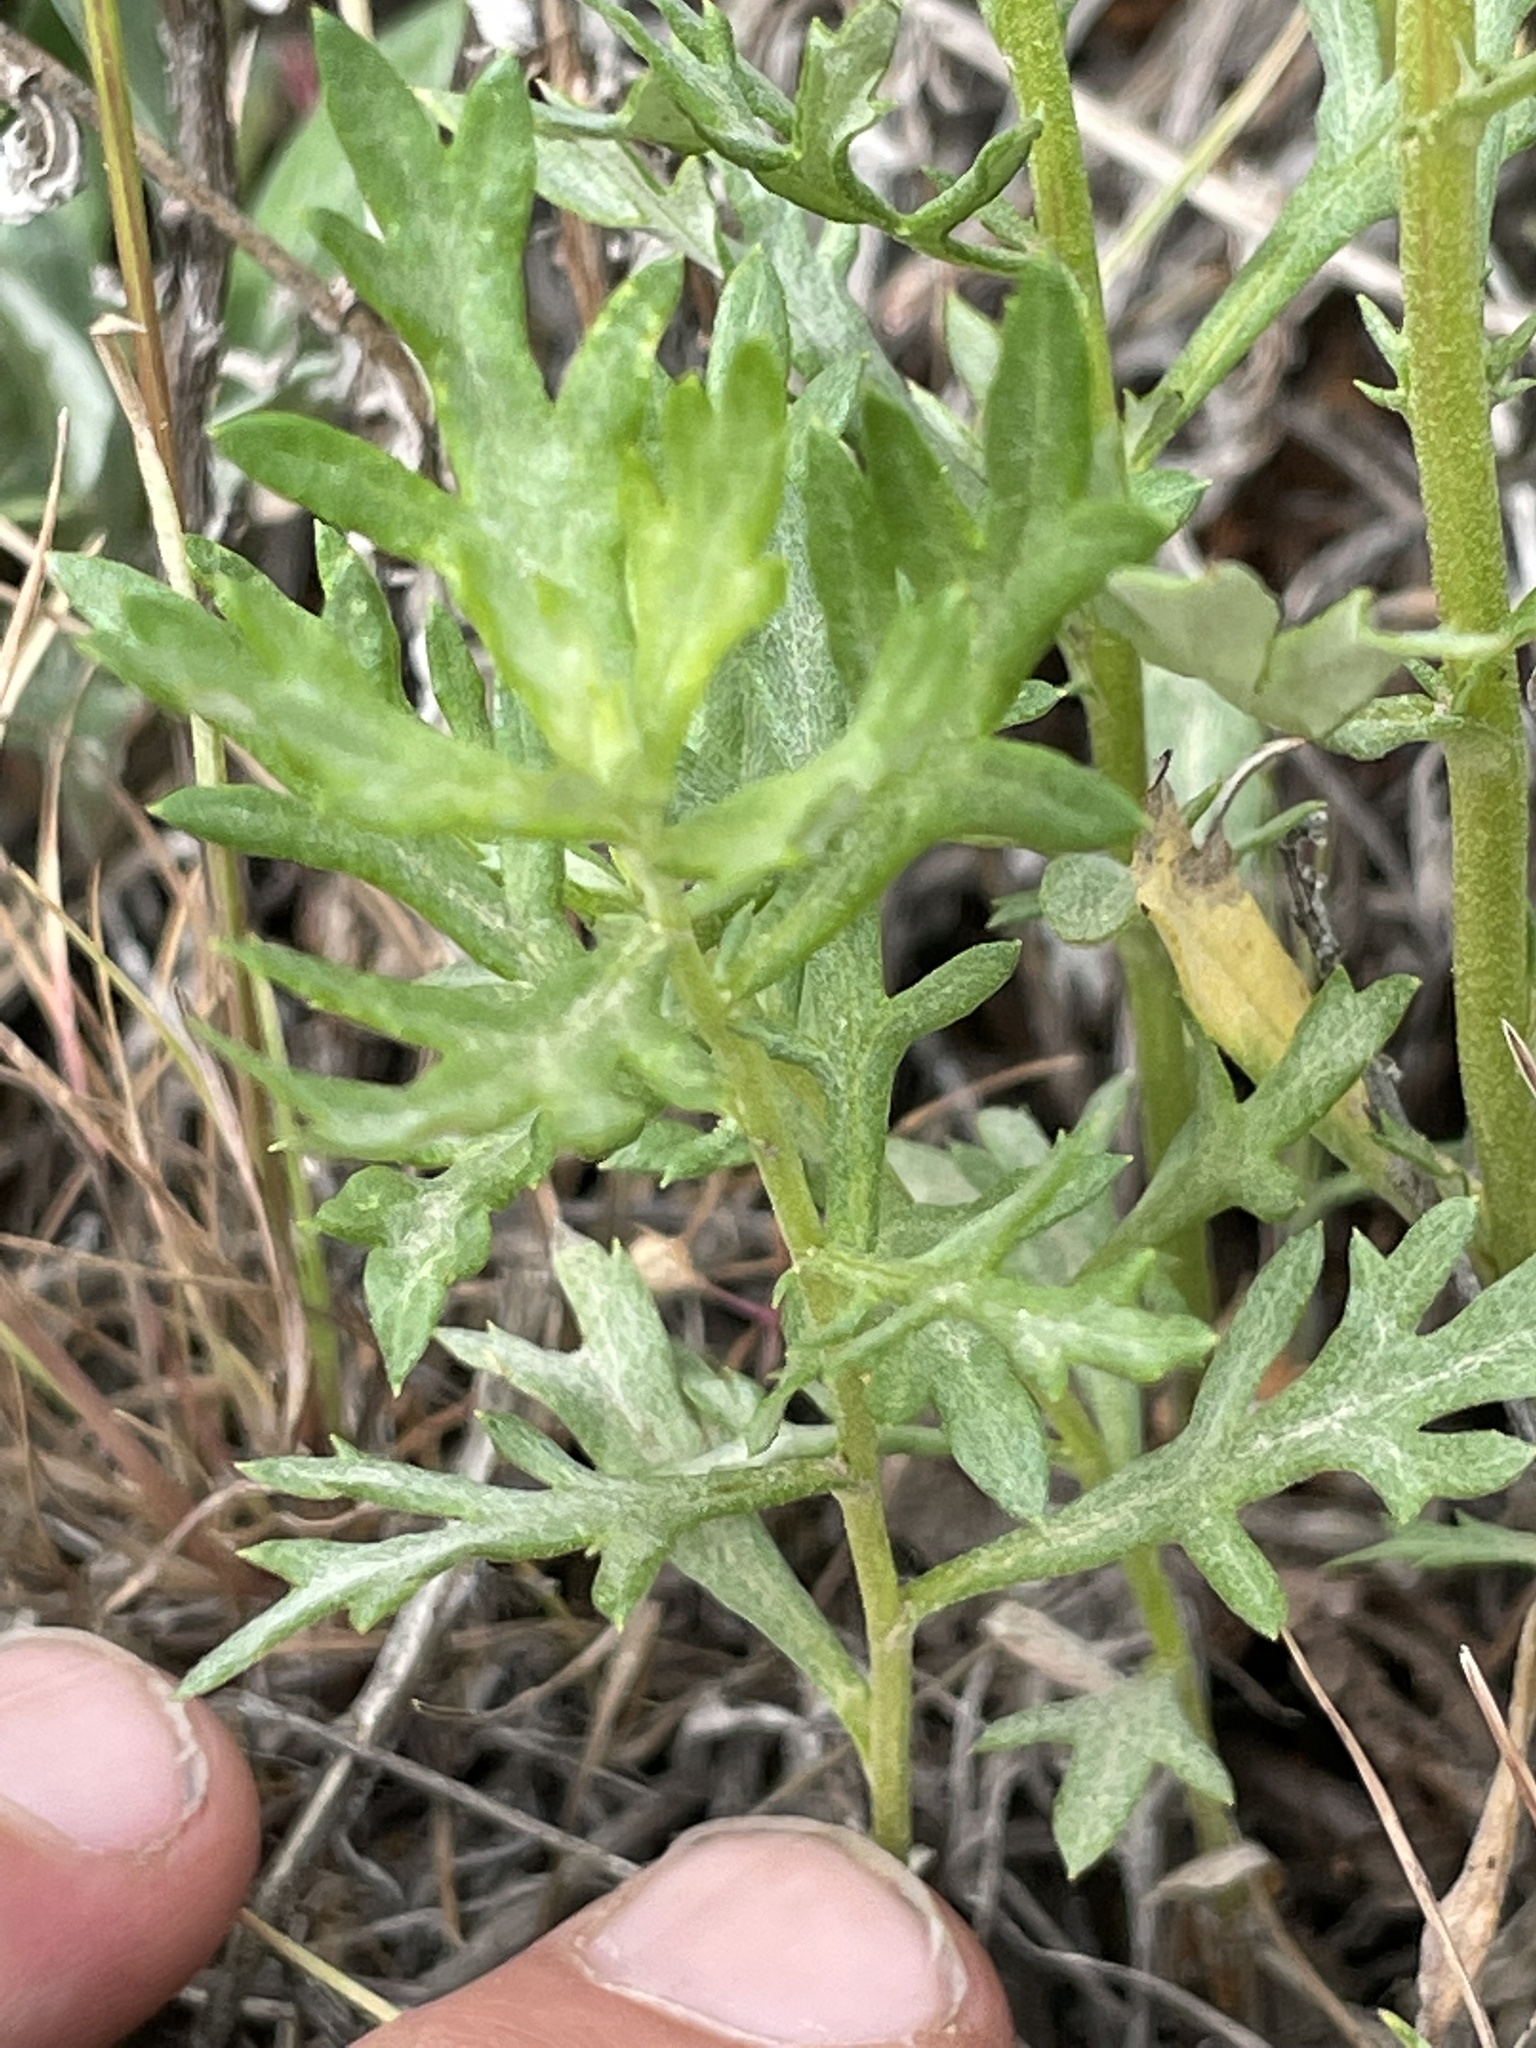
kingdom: Plantae
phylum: Tracheophyta
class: Magnoliopsida
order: Asterales
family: Asteraceae
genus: Artemisia
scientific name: Artemisia ludoviciana
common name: Western mugwort
